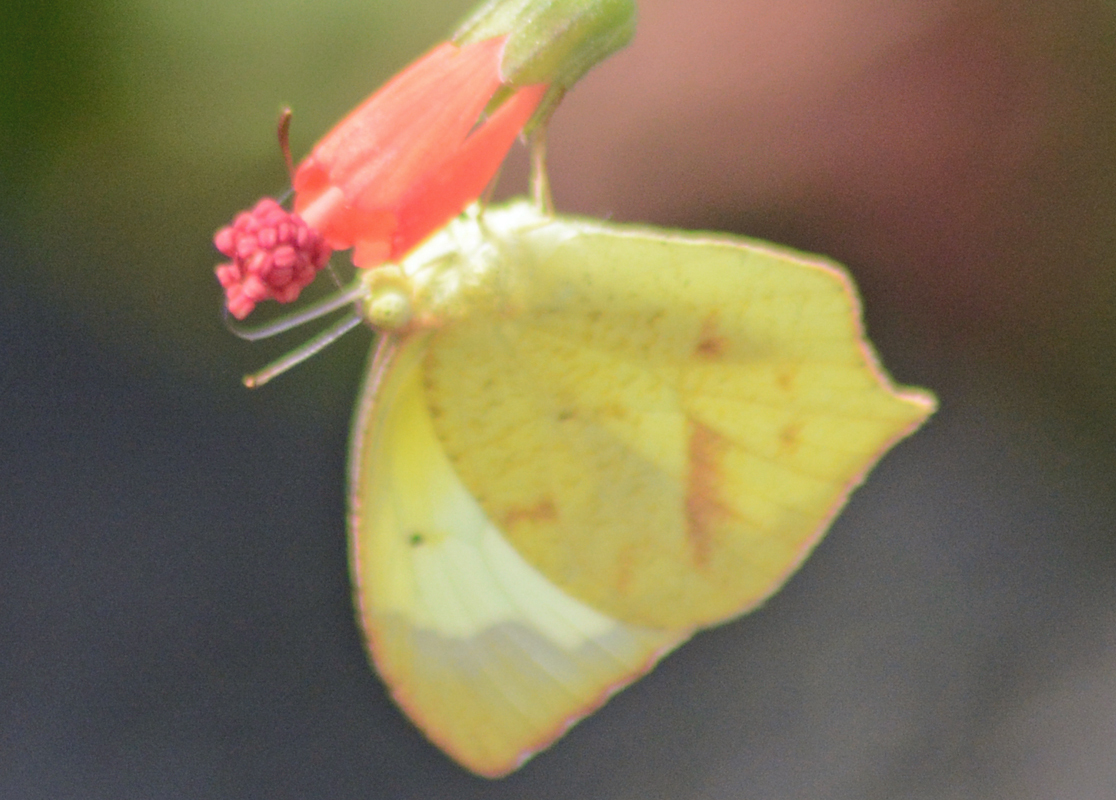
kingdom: Animalia
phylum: Arthropoda
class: Insecta
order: Lepidoptera
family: Pieridae
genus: Abaeis
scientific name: Abaeis mexicana
